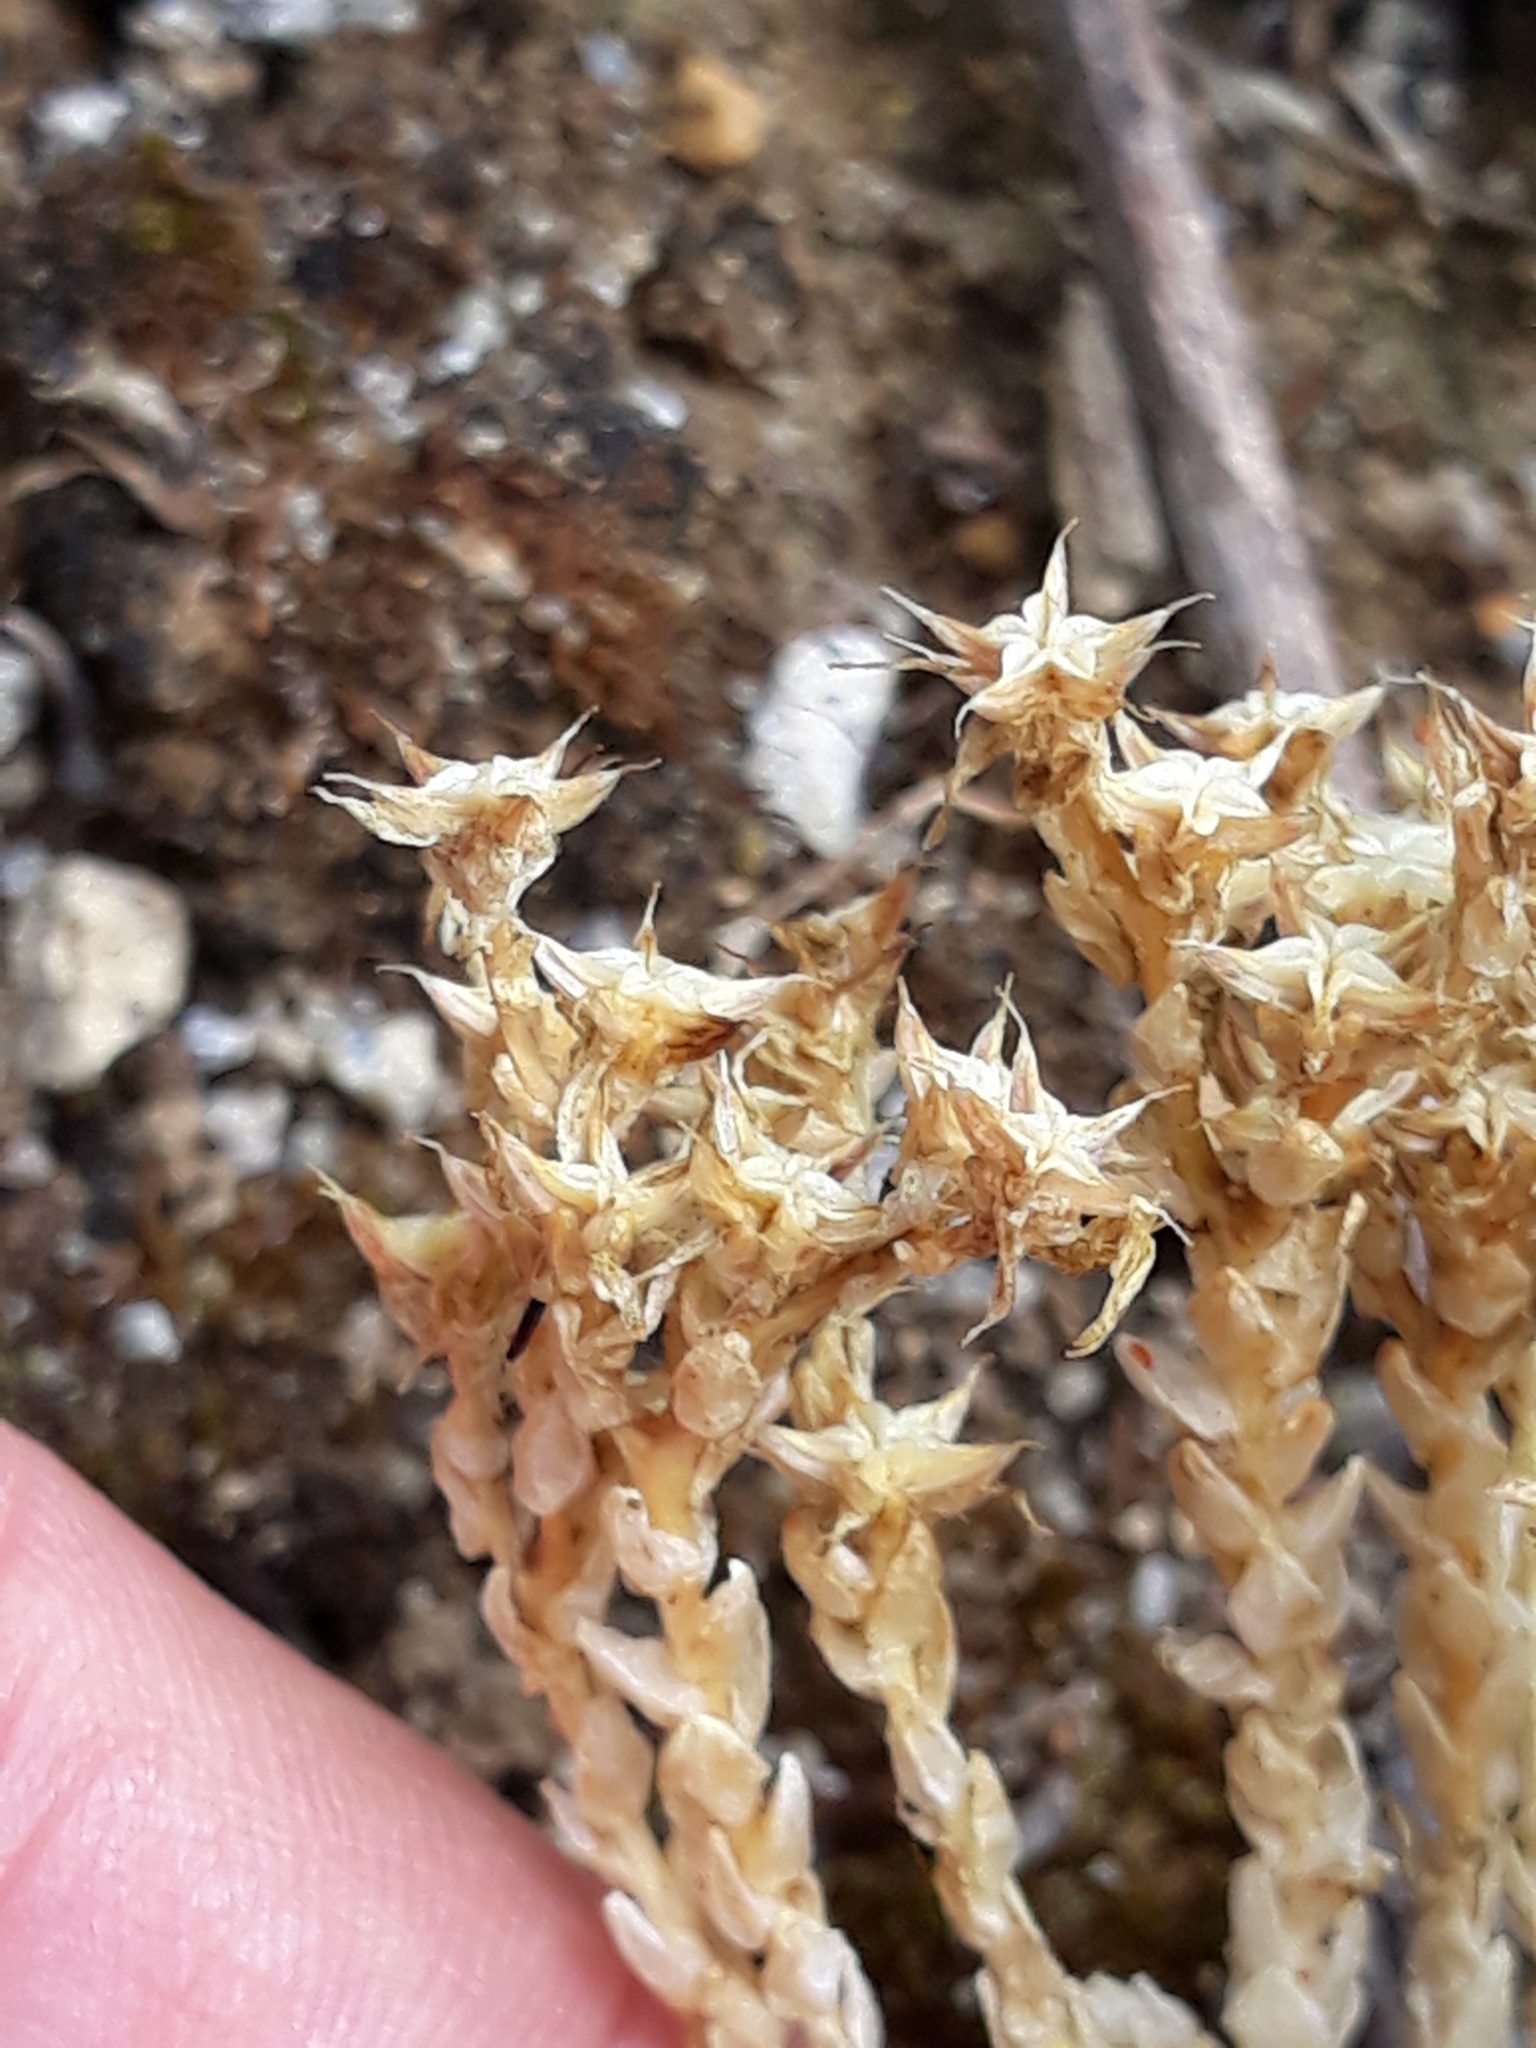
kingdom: Plantae
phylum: Tracheophyta
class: Magnoliopsida
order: Saxifragales
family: Crassulaceae
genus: Sedum
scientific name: Sedum acre
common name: Biting stonecrop
